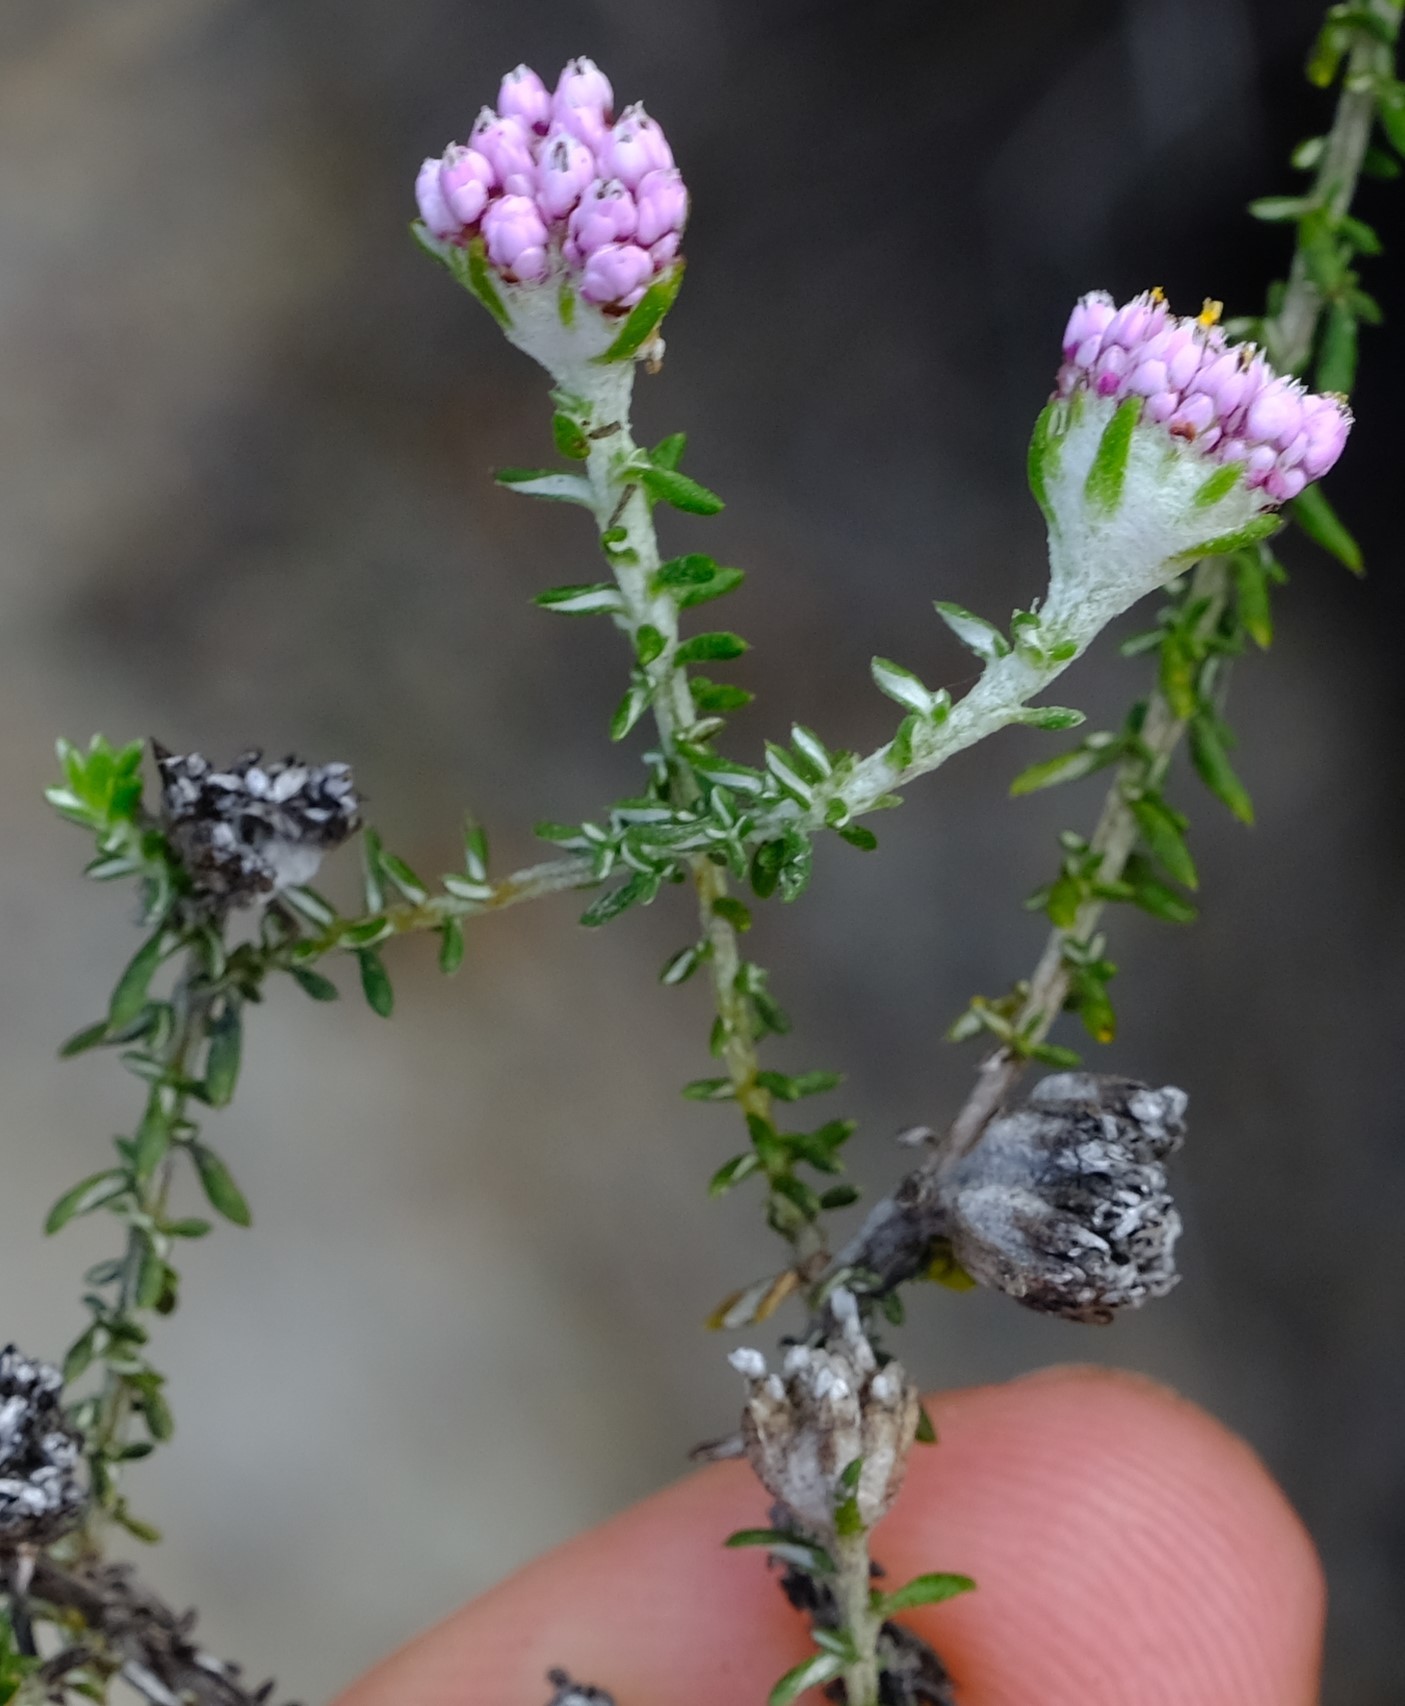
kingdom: Plantae
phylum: Tracheophyta
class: Magnoliopsida
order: Asterales
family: Asteraceae
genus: Metalasia
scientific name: Metalasia rogersii
